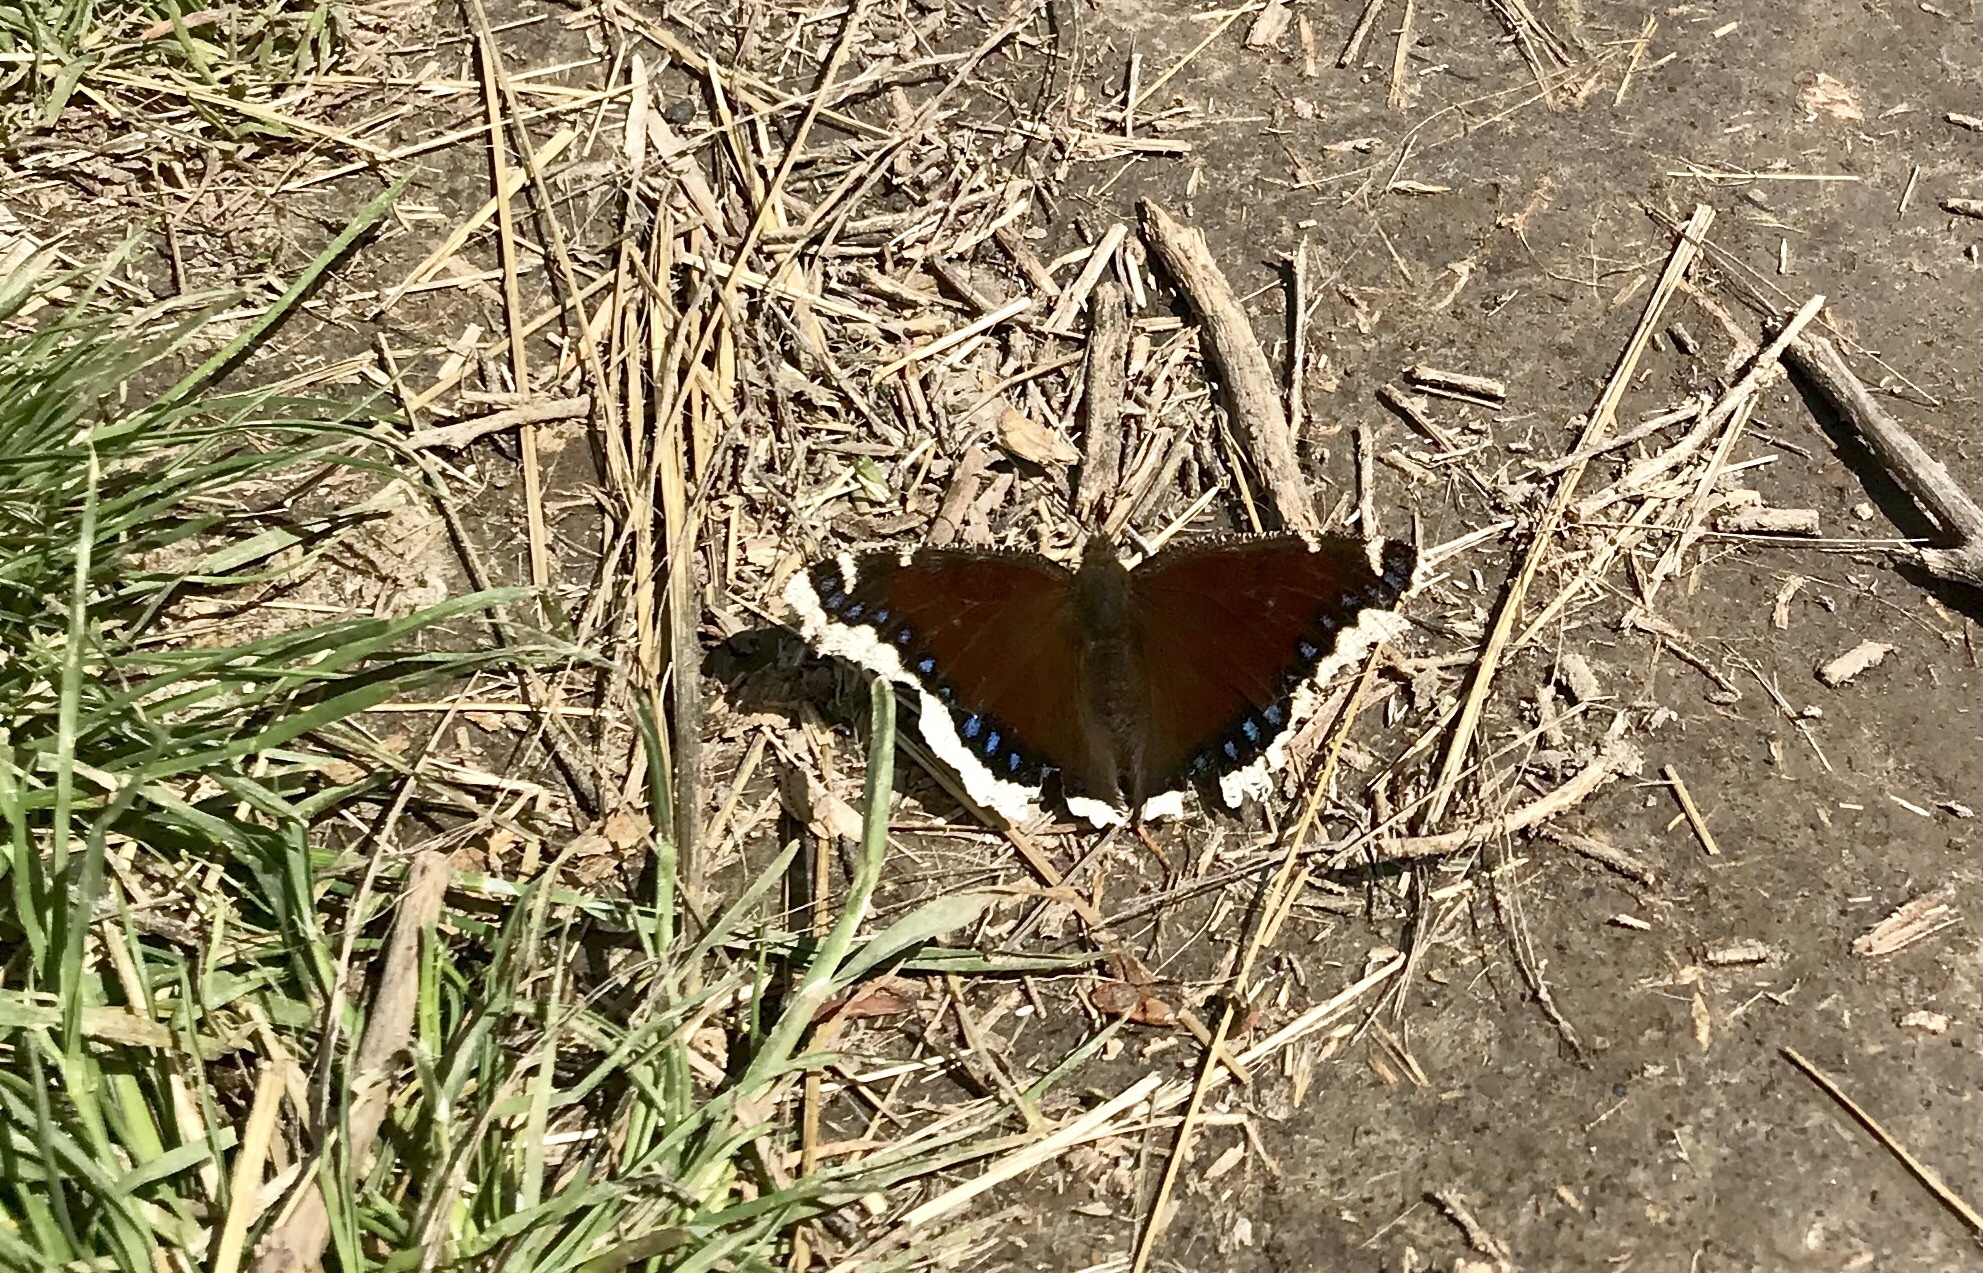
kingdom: Animalia
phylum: Arthropoda
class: Insecta
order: Lepidoptera
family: Nymphalidae
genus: Nymphalis
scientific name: Nymphalis antiopa
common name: Camberwell beauty
